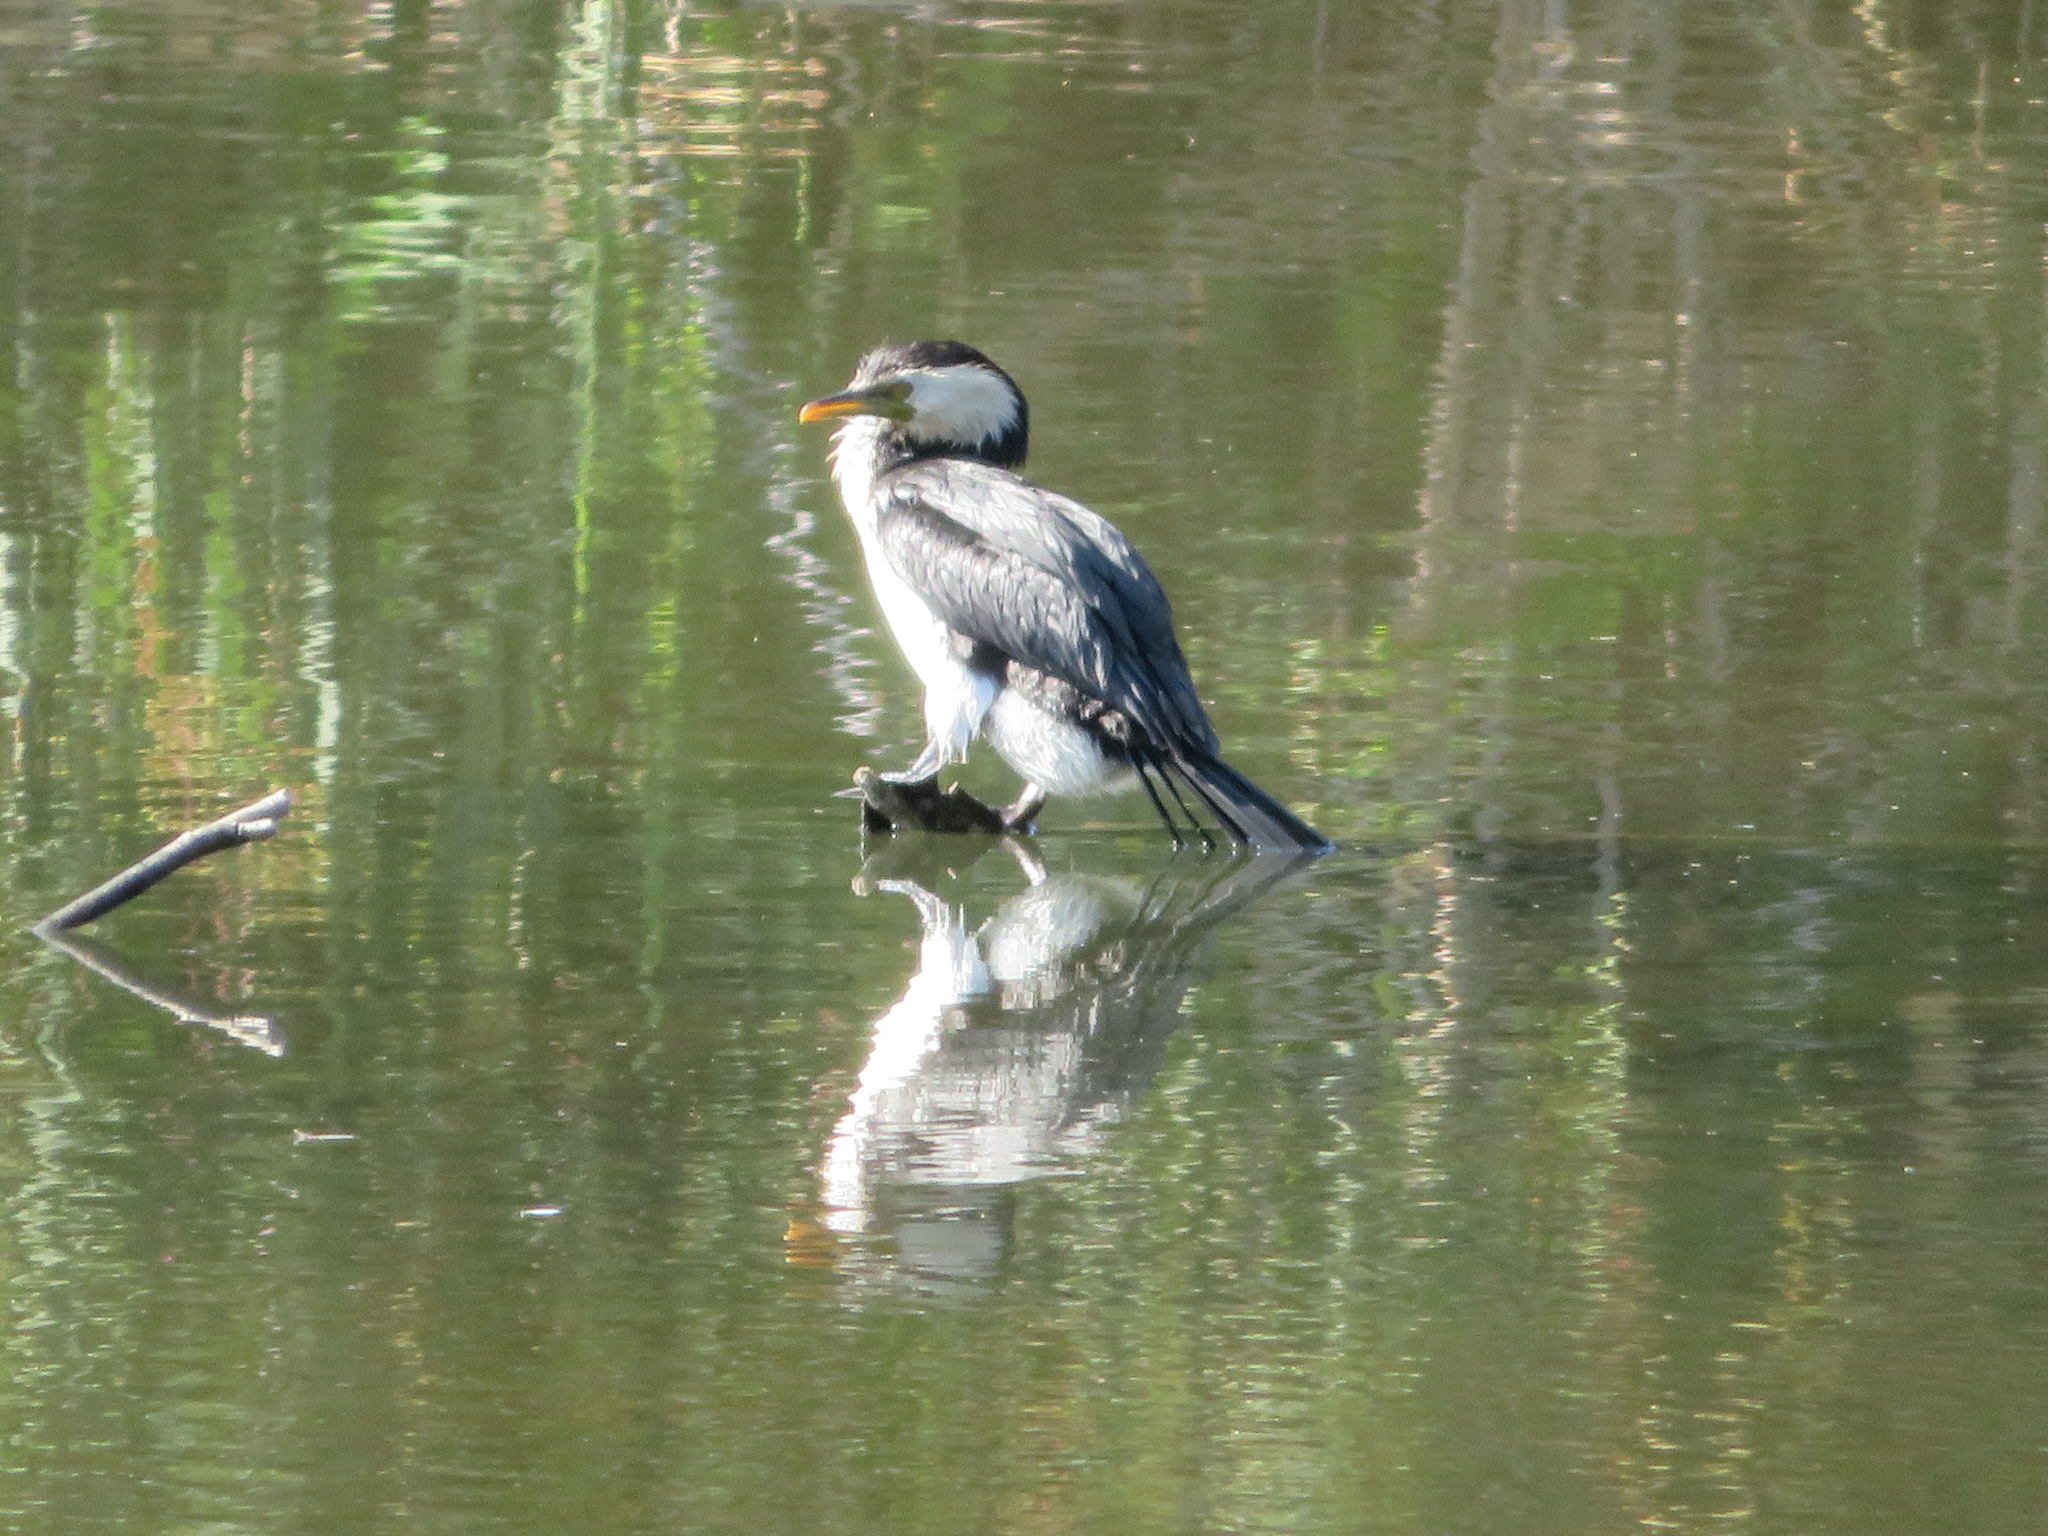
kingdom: Animalia
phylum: Chordata
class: Aves
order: Suliformes
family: Phalacrocoracidae
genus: Microcarbo
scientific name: Microcarbo melanoleucos
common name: Little pied cormorant
